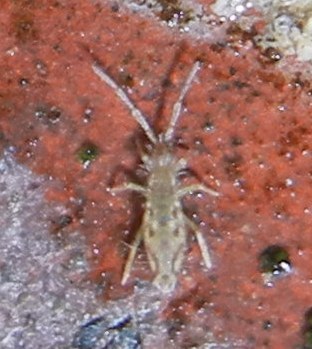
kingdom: Animalia
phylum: Arthropoda
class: Collembola
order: Entomobryomorpha
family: Entomobryidae
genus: Entomobrya
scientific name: Entomobrya intermedia
